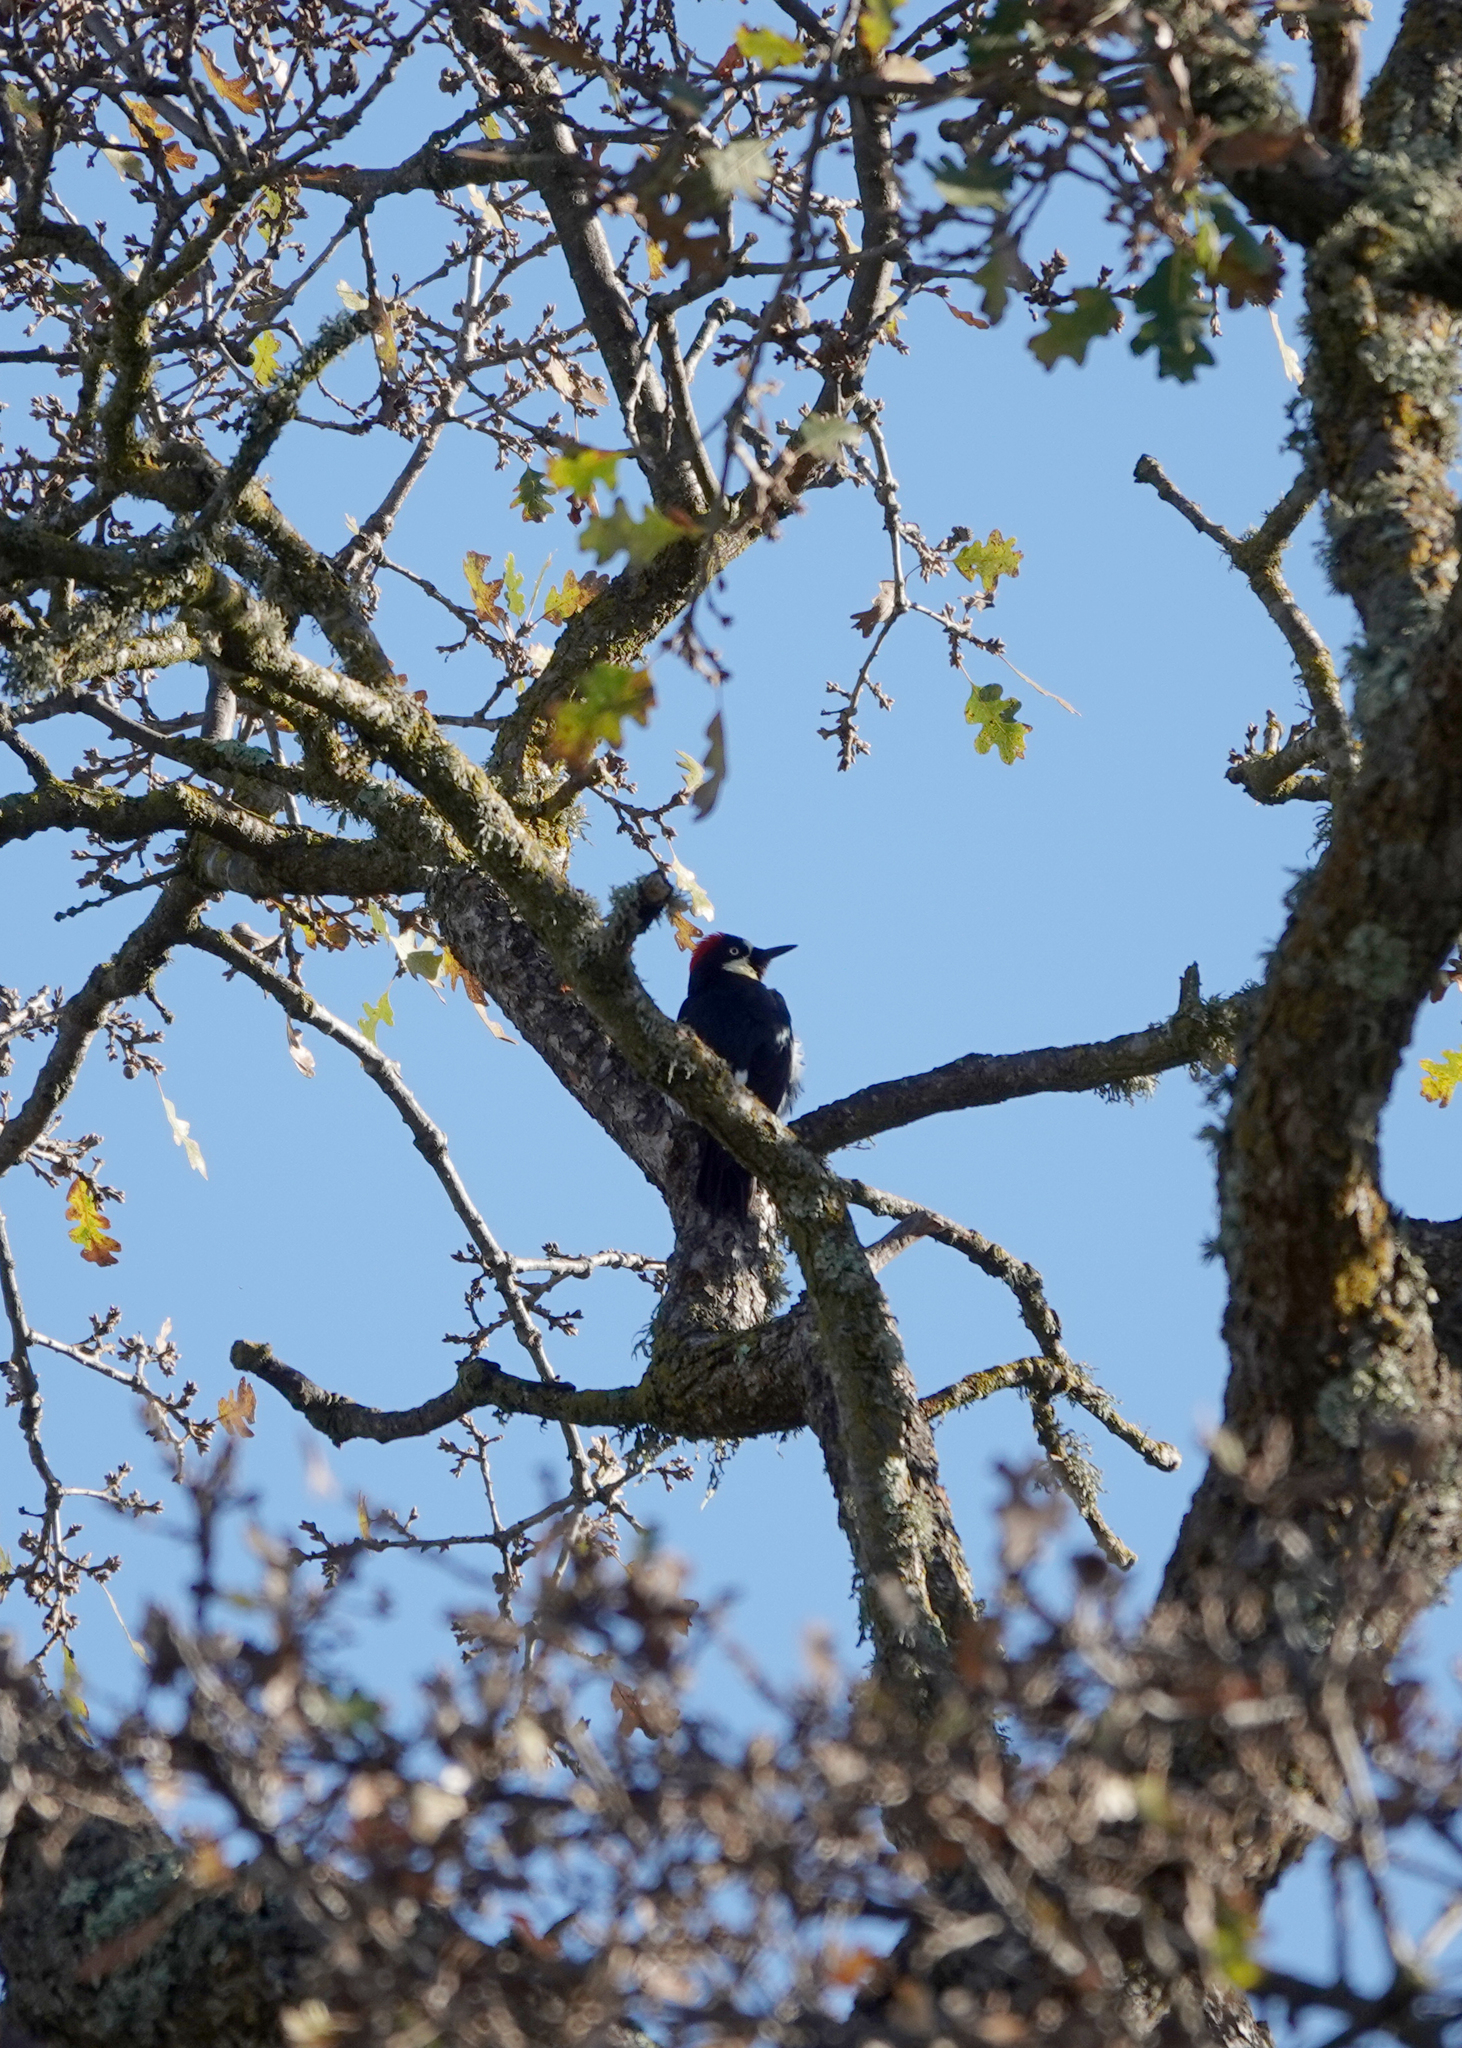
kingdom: Animalia
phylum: Chordata
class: Aves
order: Piciformes
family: Picidae
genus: Melanerpes
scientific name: Melanerpes formicivorus
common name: Acorn woodpecker
